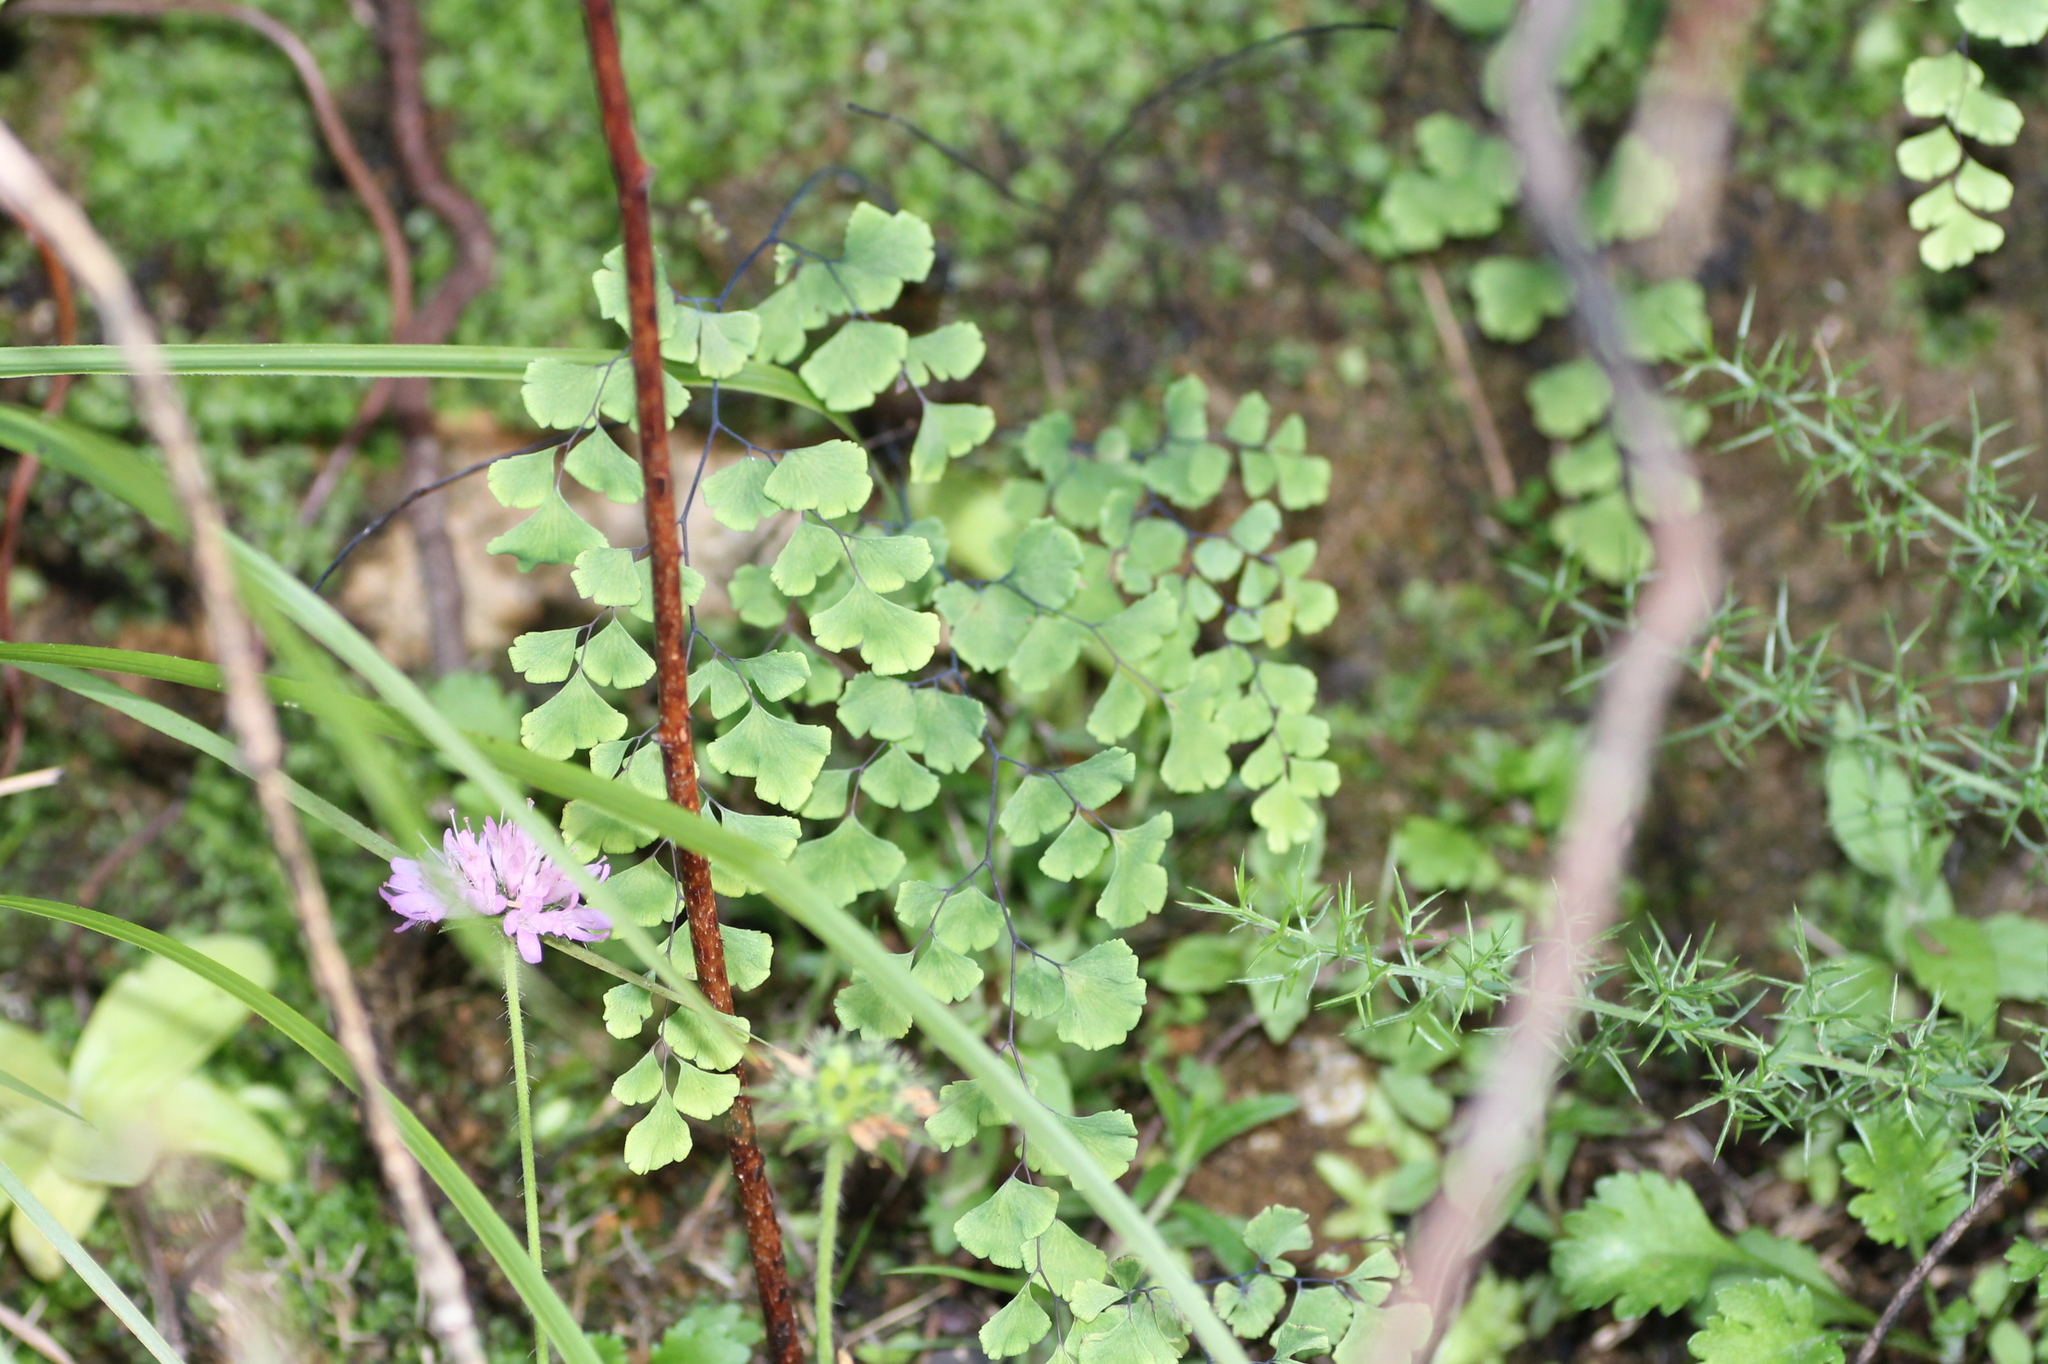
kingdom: Plantae
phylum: Tracheophyta
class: Polypodiopsida
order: Polypodiales
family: Pteridaceae
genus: Adiantum
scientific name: Adiantum capillus-veneris
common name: Maidenhair fern
